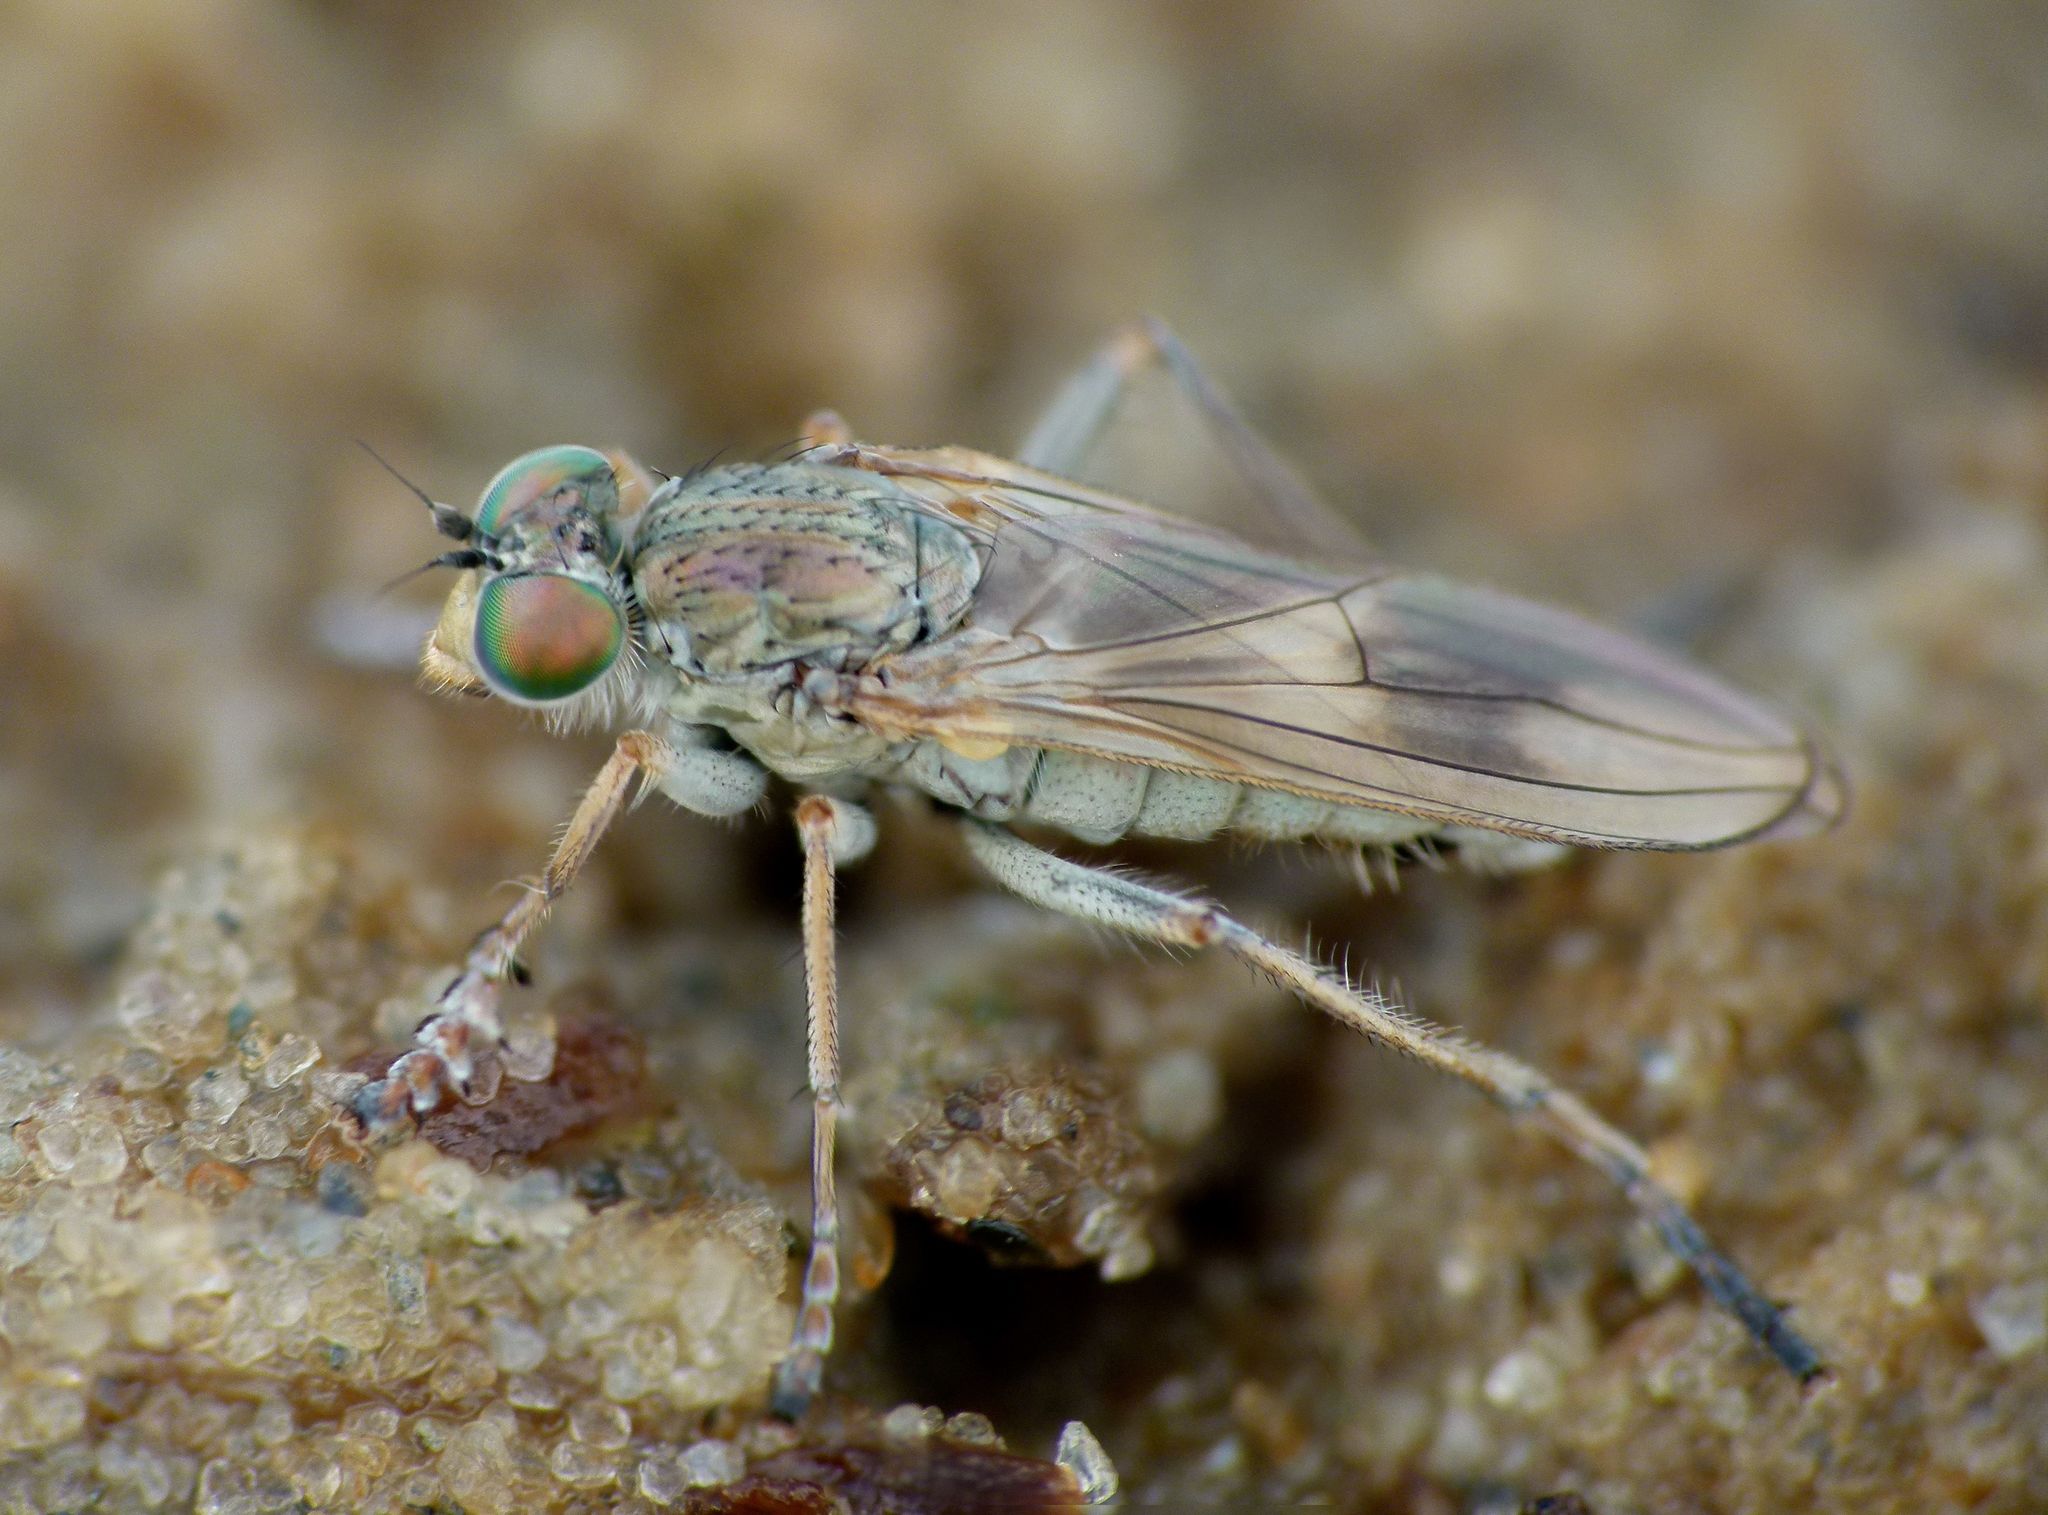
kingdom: Animalia
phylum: Arthropoda
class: Insecta
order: Diptera
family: Dolichopodidae
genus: Scorpiurus
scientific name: Scorpiurus aramoana
